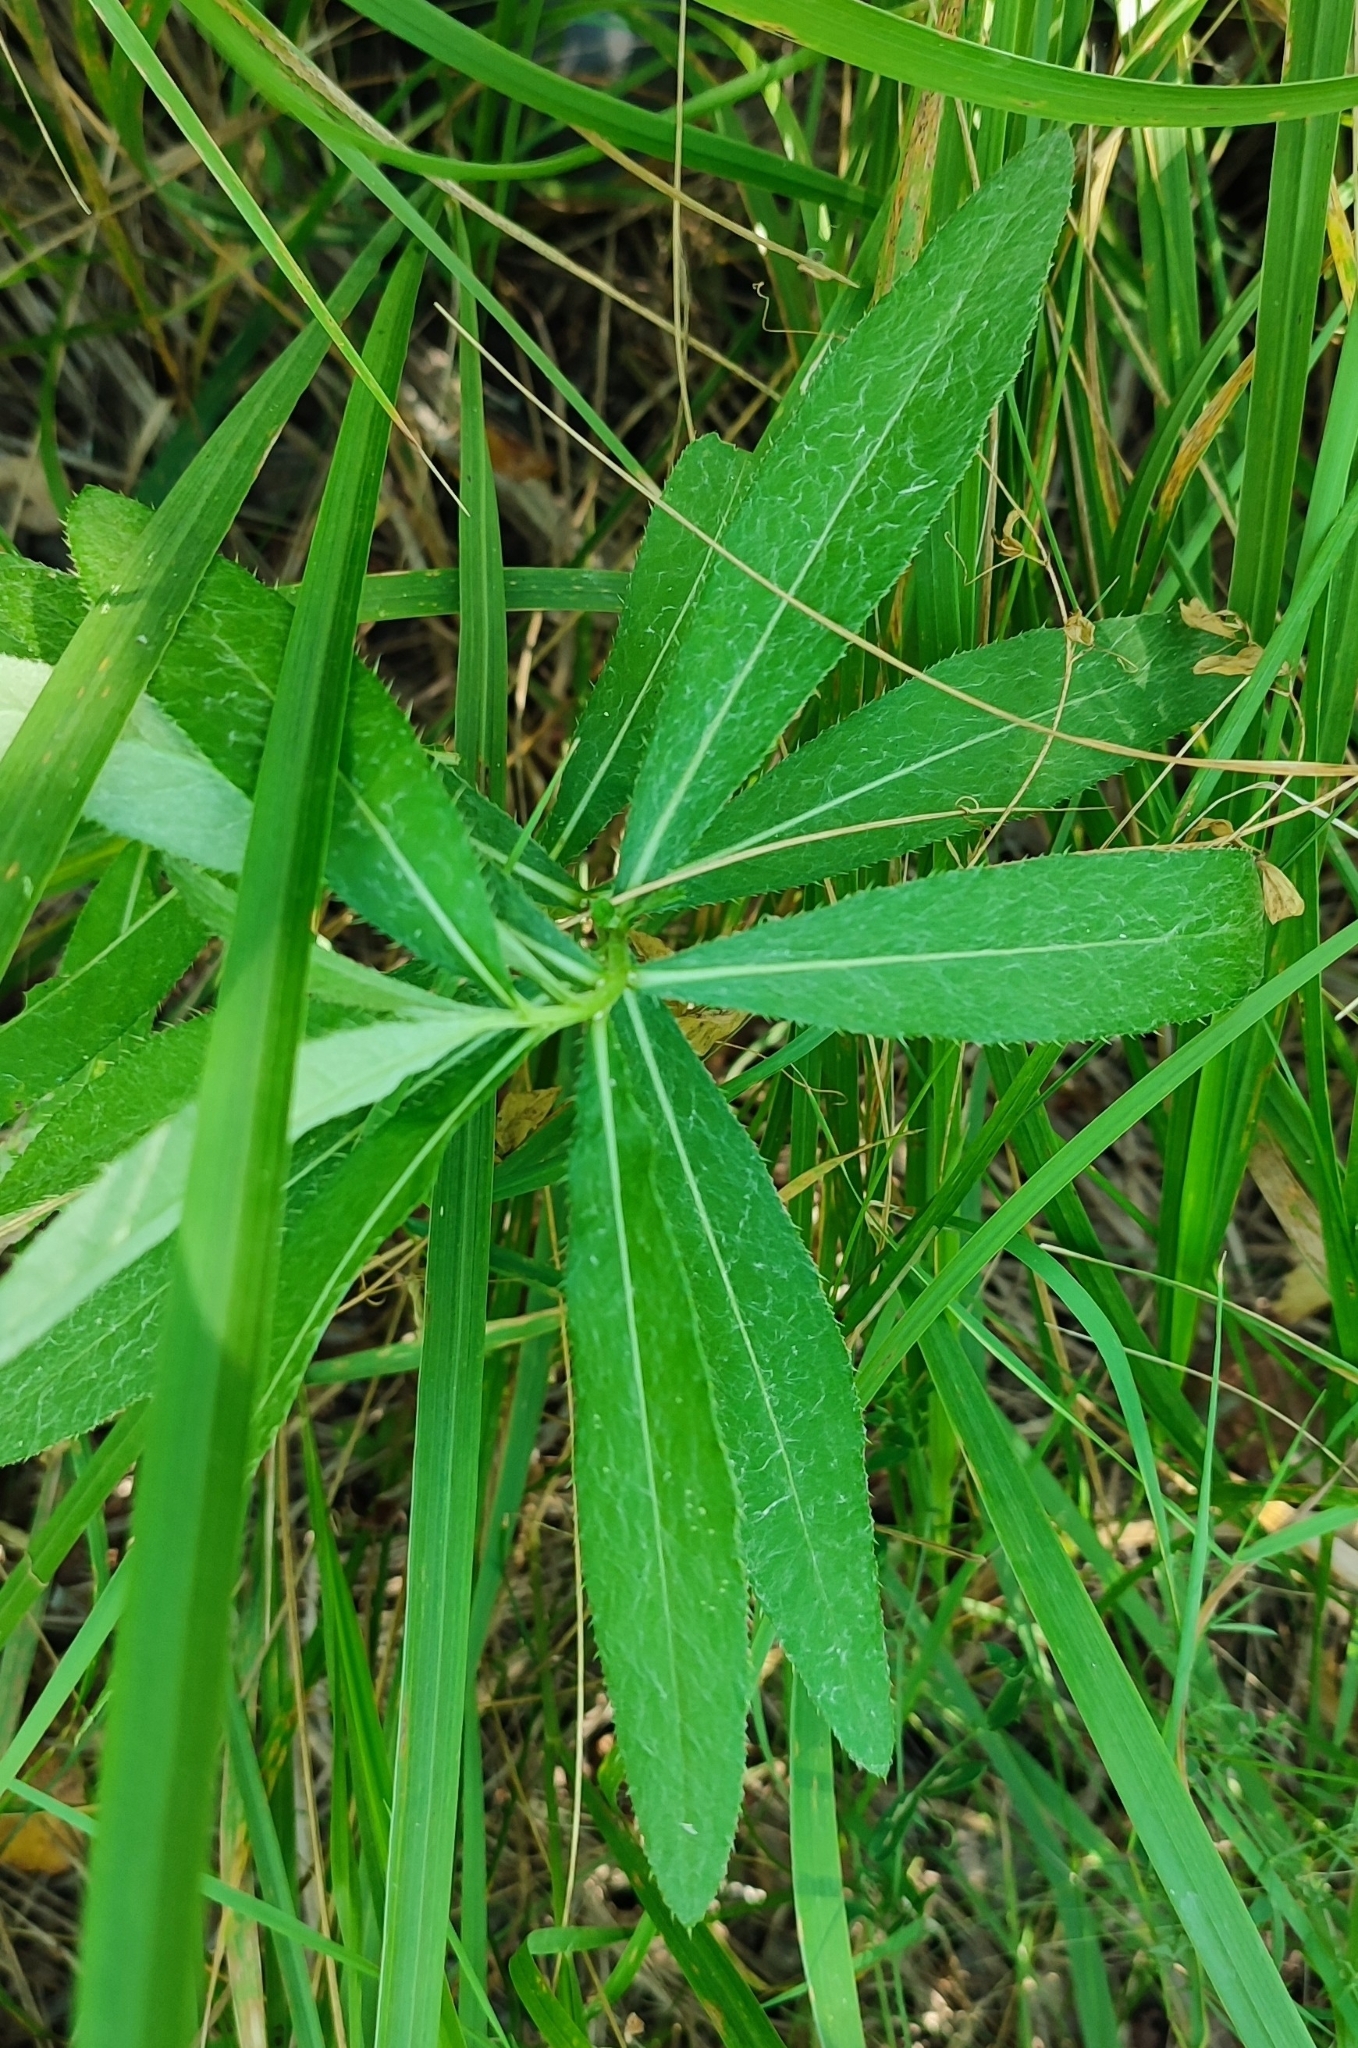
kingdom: Plantae
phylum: Tracheophyta
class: Magnoliopsida
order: Asterales
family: Asteraceae
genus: Cirsium
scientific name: Cirsium arvense
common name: Creeping thistle
